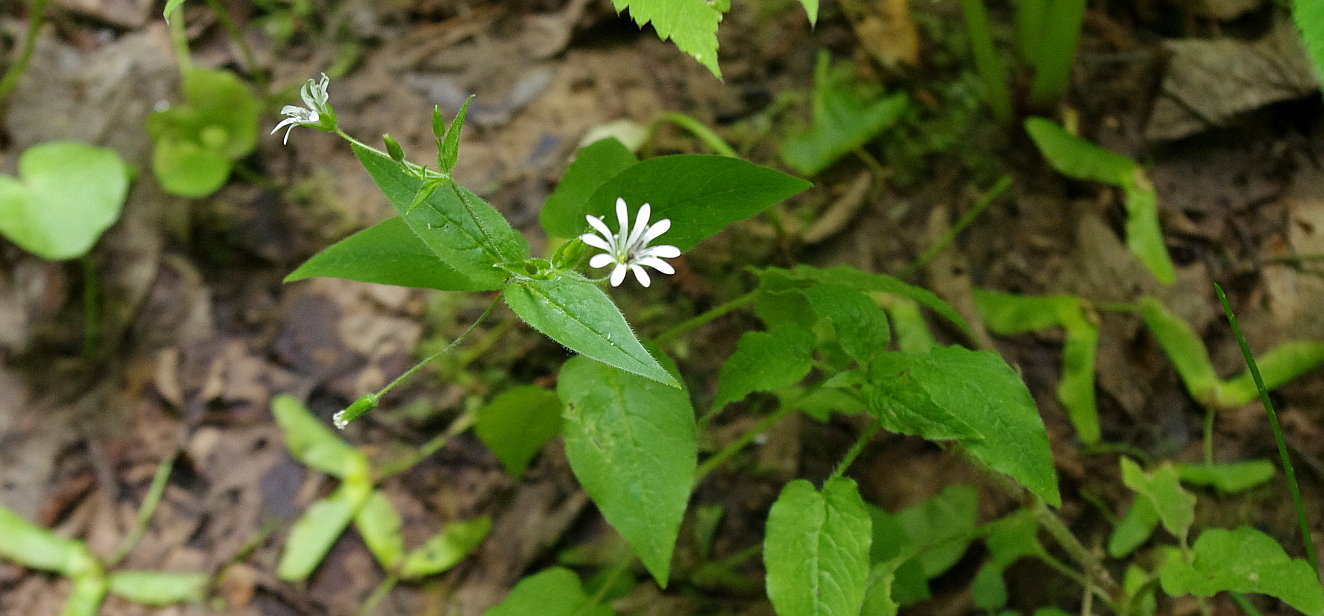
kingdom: Plantae
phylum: Tracheophyta
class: Magnoliopsida
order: Caryophyllales
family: Caryophyllaceae
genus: Stellaria
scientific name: Stellaria nemorum
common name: Wood stitchwort
